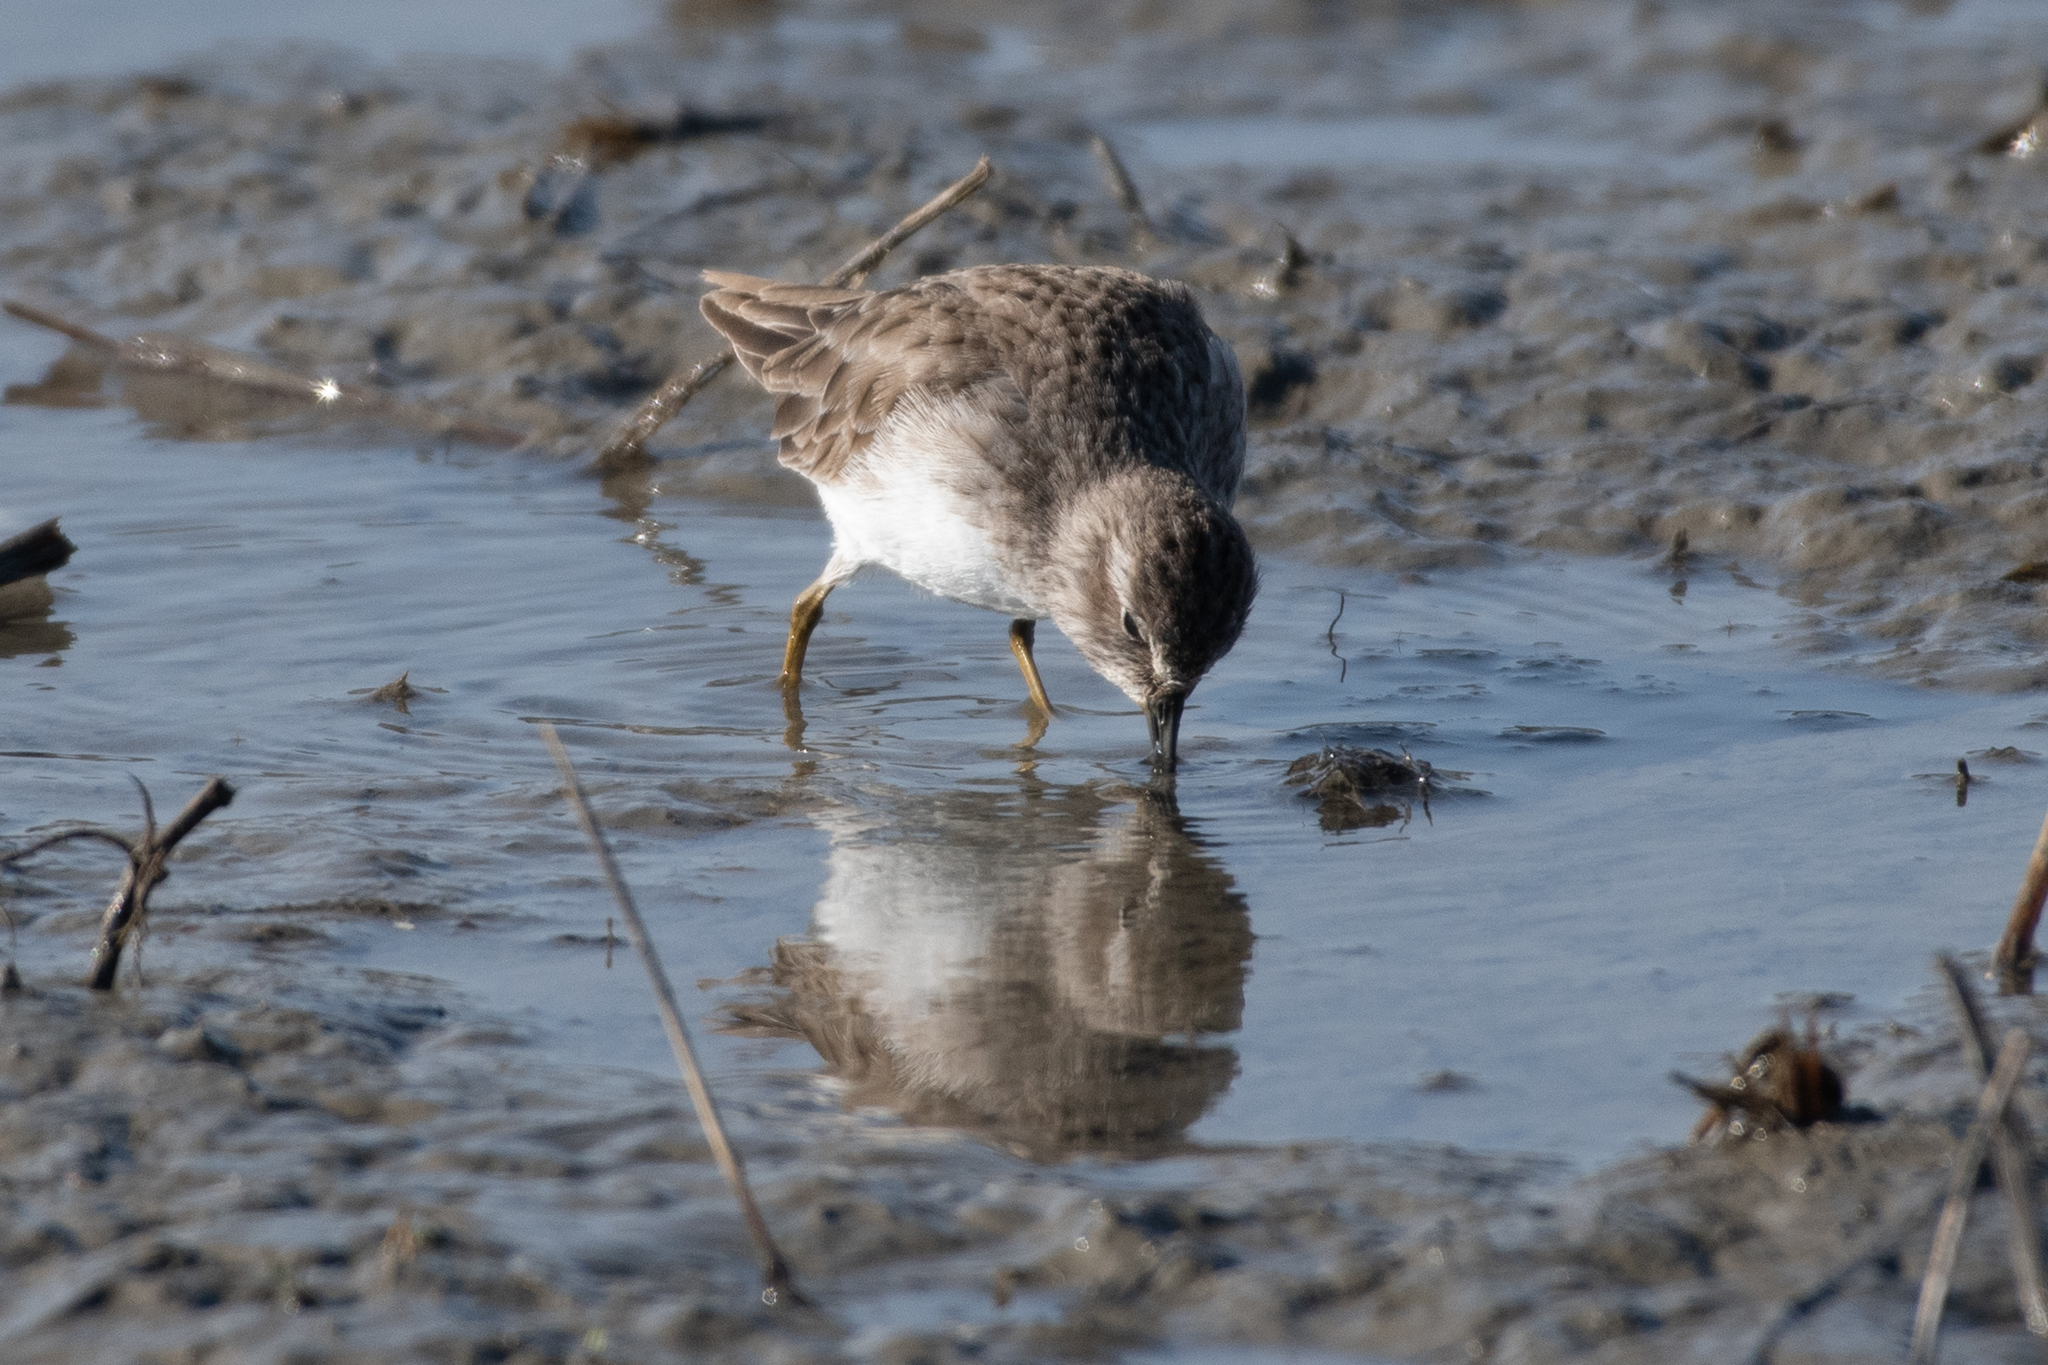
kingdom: Animalia
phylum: Chordata
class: Aves
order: Charadriiformes
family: Scolopacidae
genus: Calidris
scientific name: Calidris minutilla
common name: Least sandpiper
